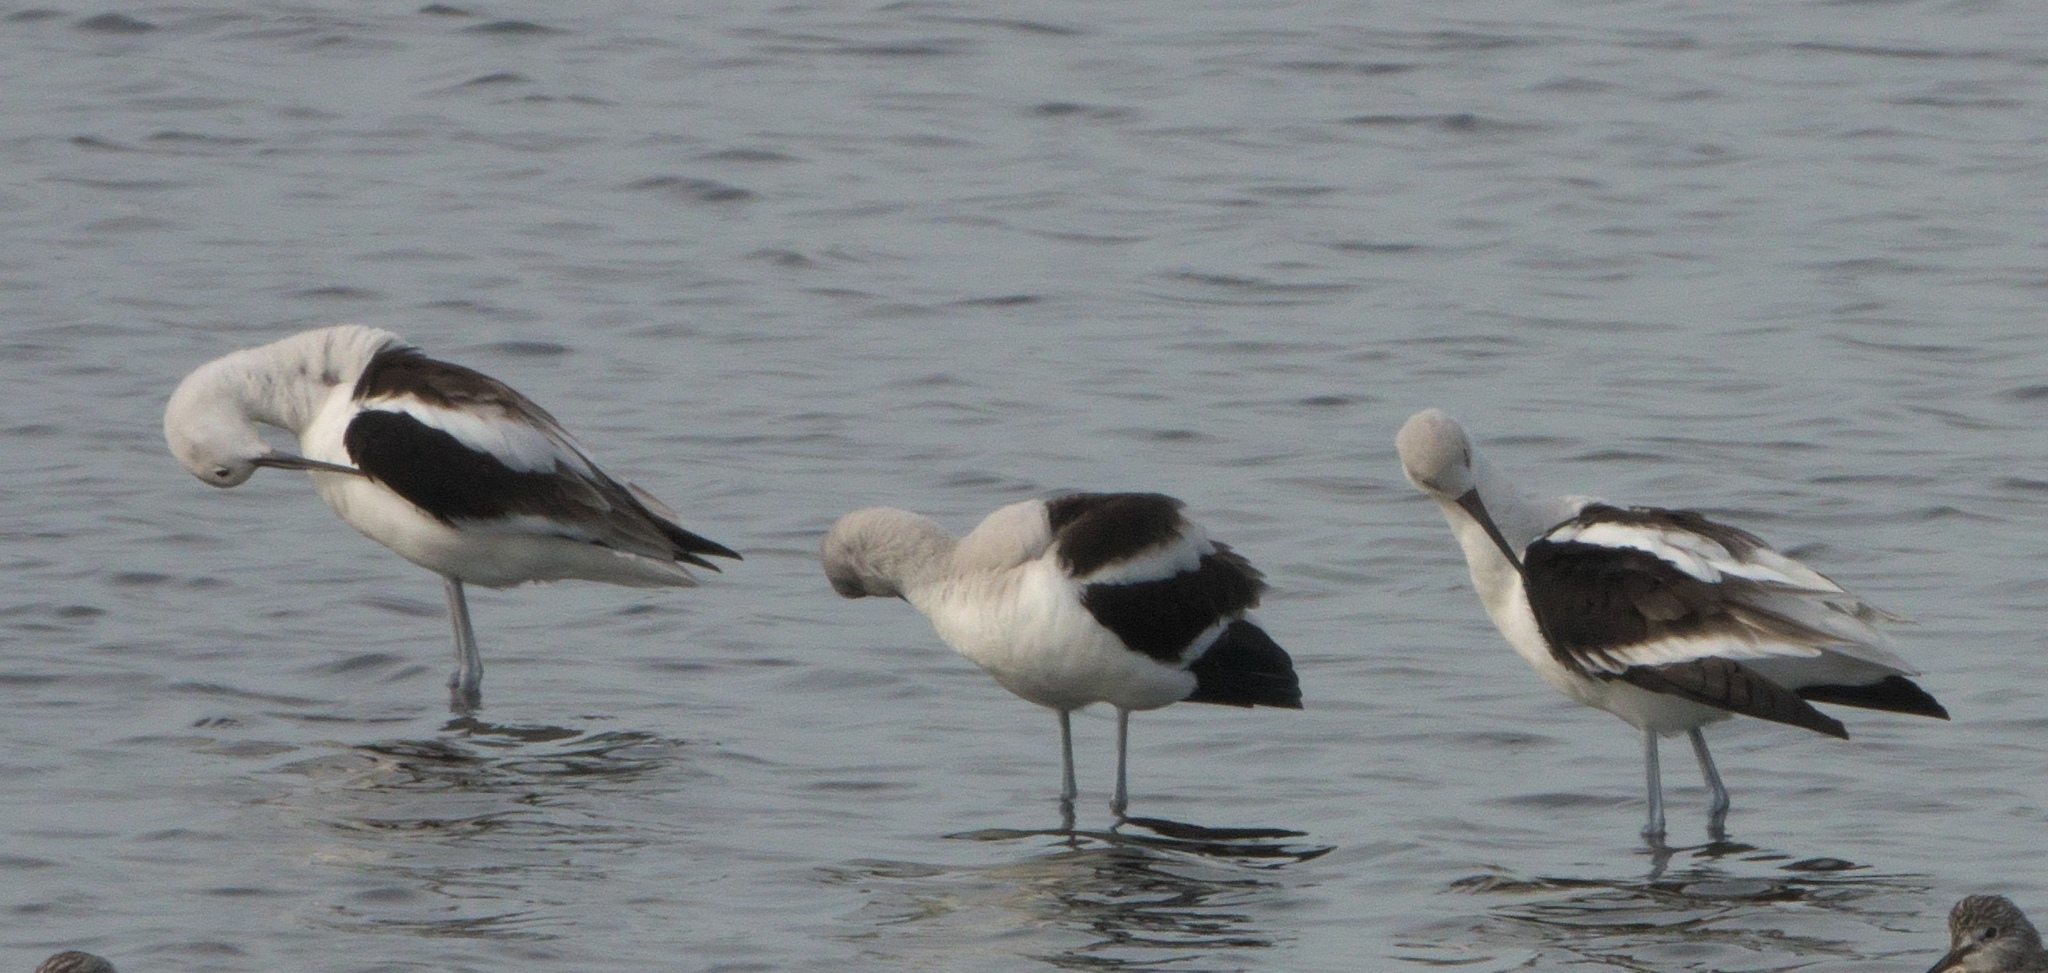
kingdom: Animalia
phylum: Chordata
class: Aves
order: Charadriiformes
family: Recurvirostridae
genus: Recurvirostra
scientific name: Recurvirostra americana
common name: American avocet
